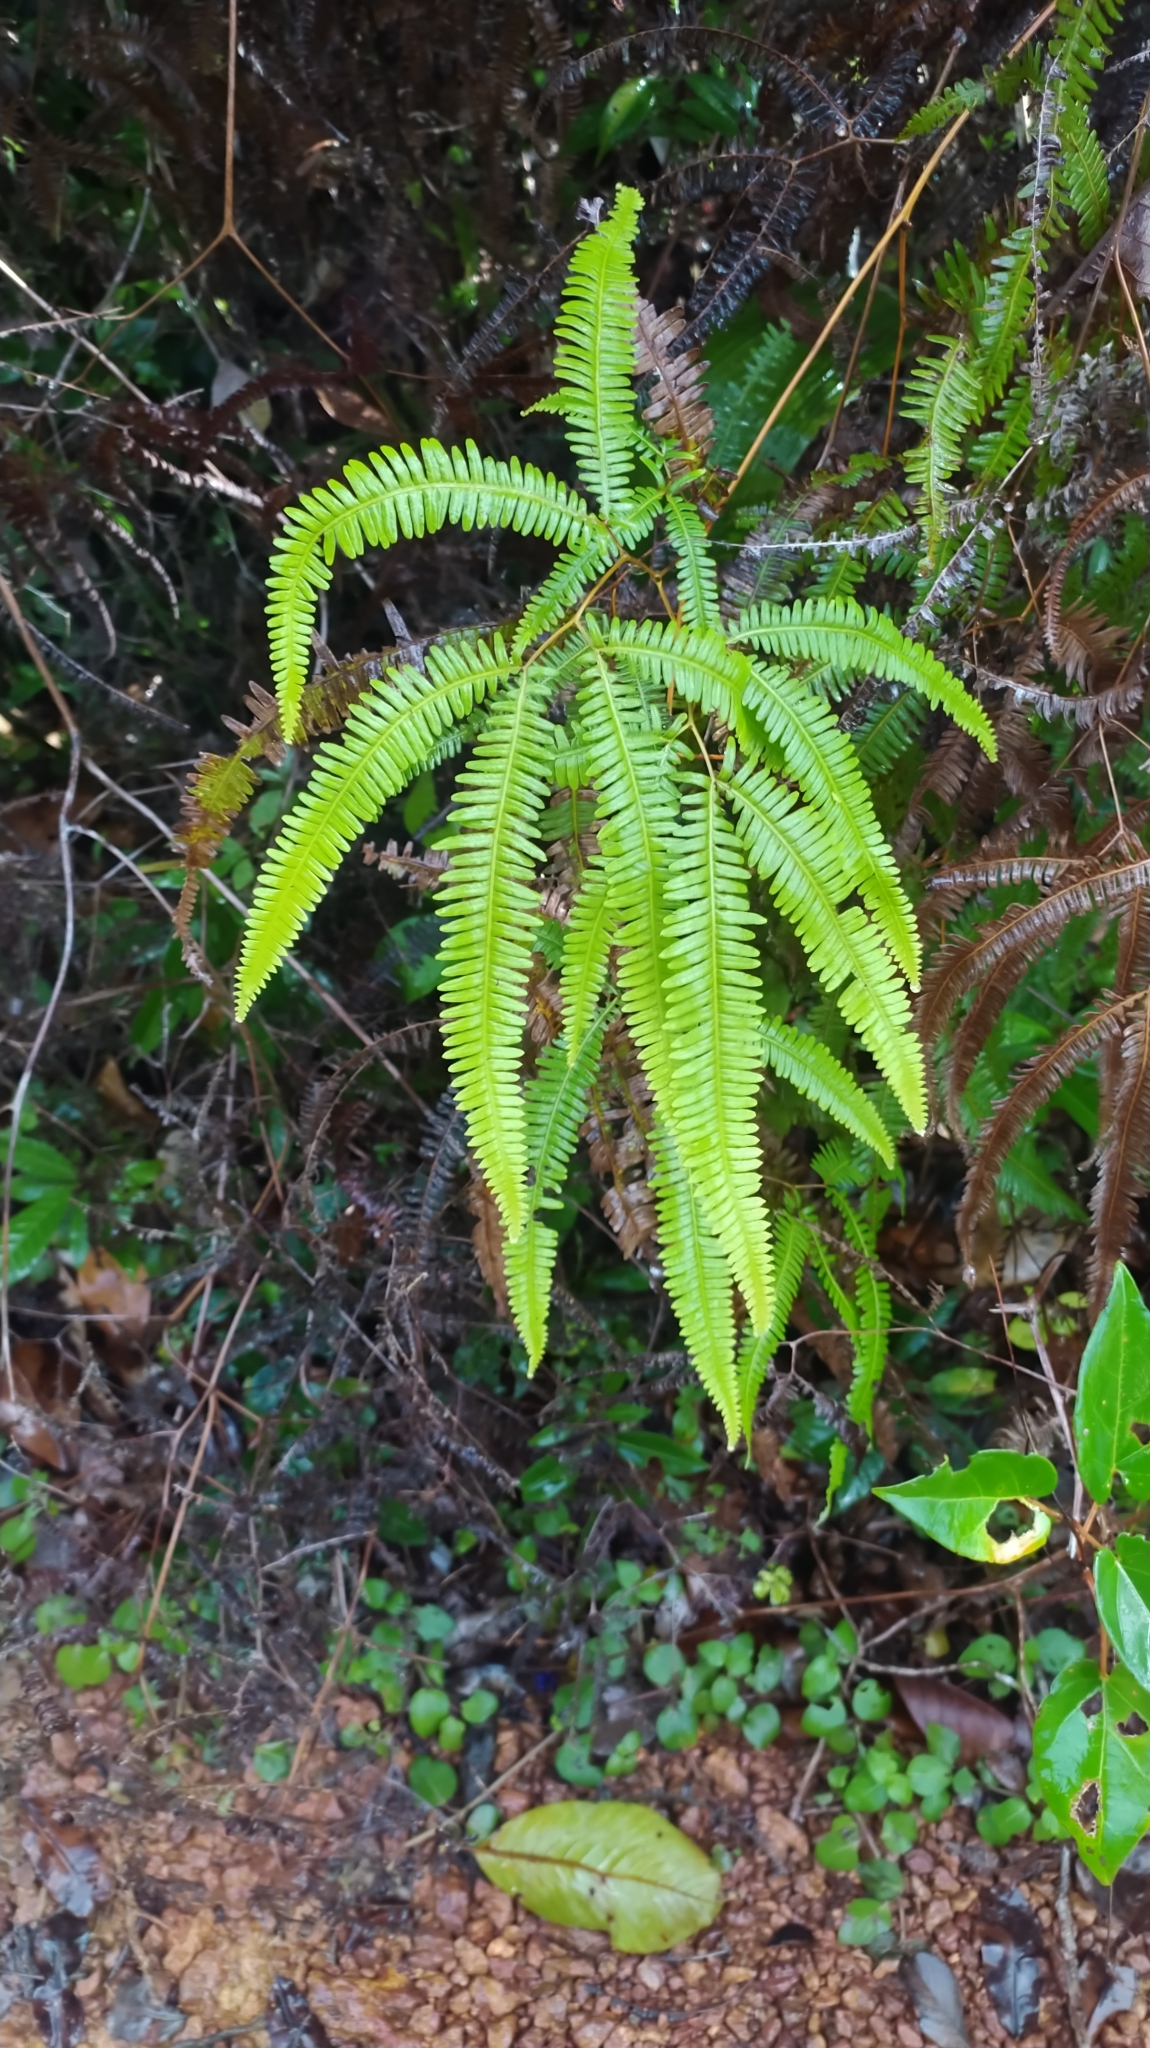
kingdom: Plantae
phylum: Tracheophyta
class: Polypodiopsida
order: Gleicheniales
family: Gleicheniaceae
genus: Gleichenella
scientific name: Gleichenella pectinata
